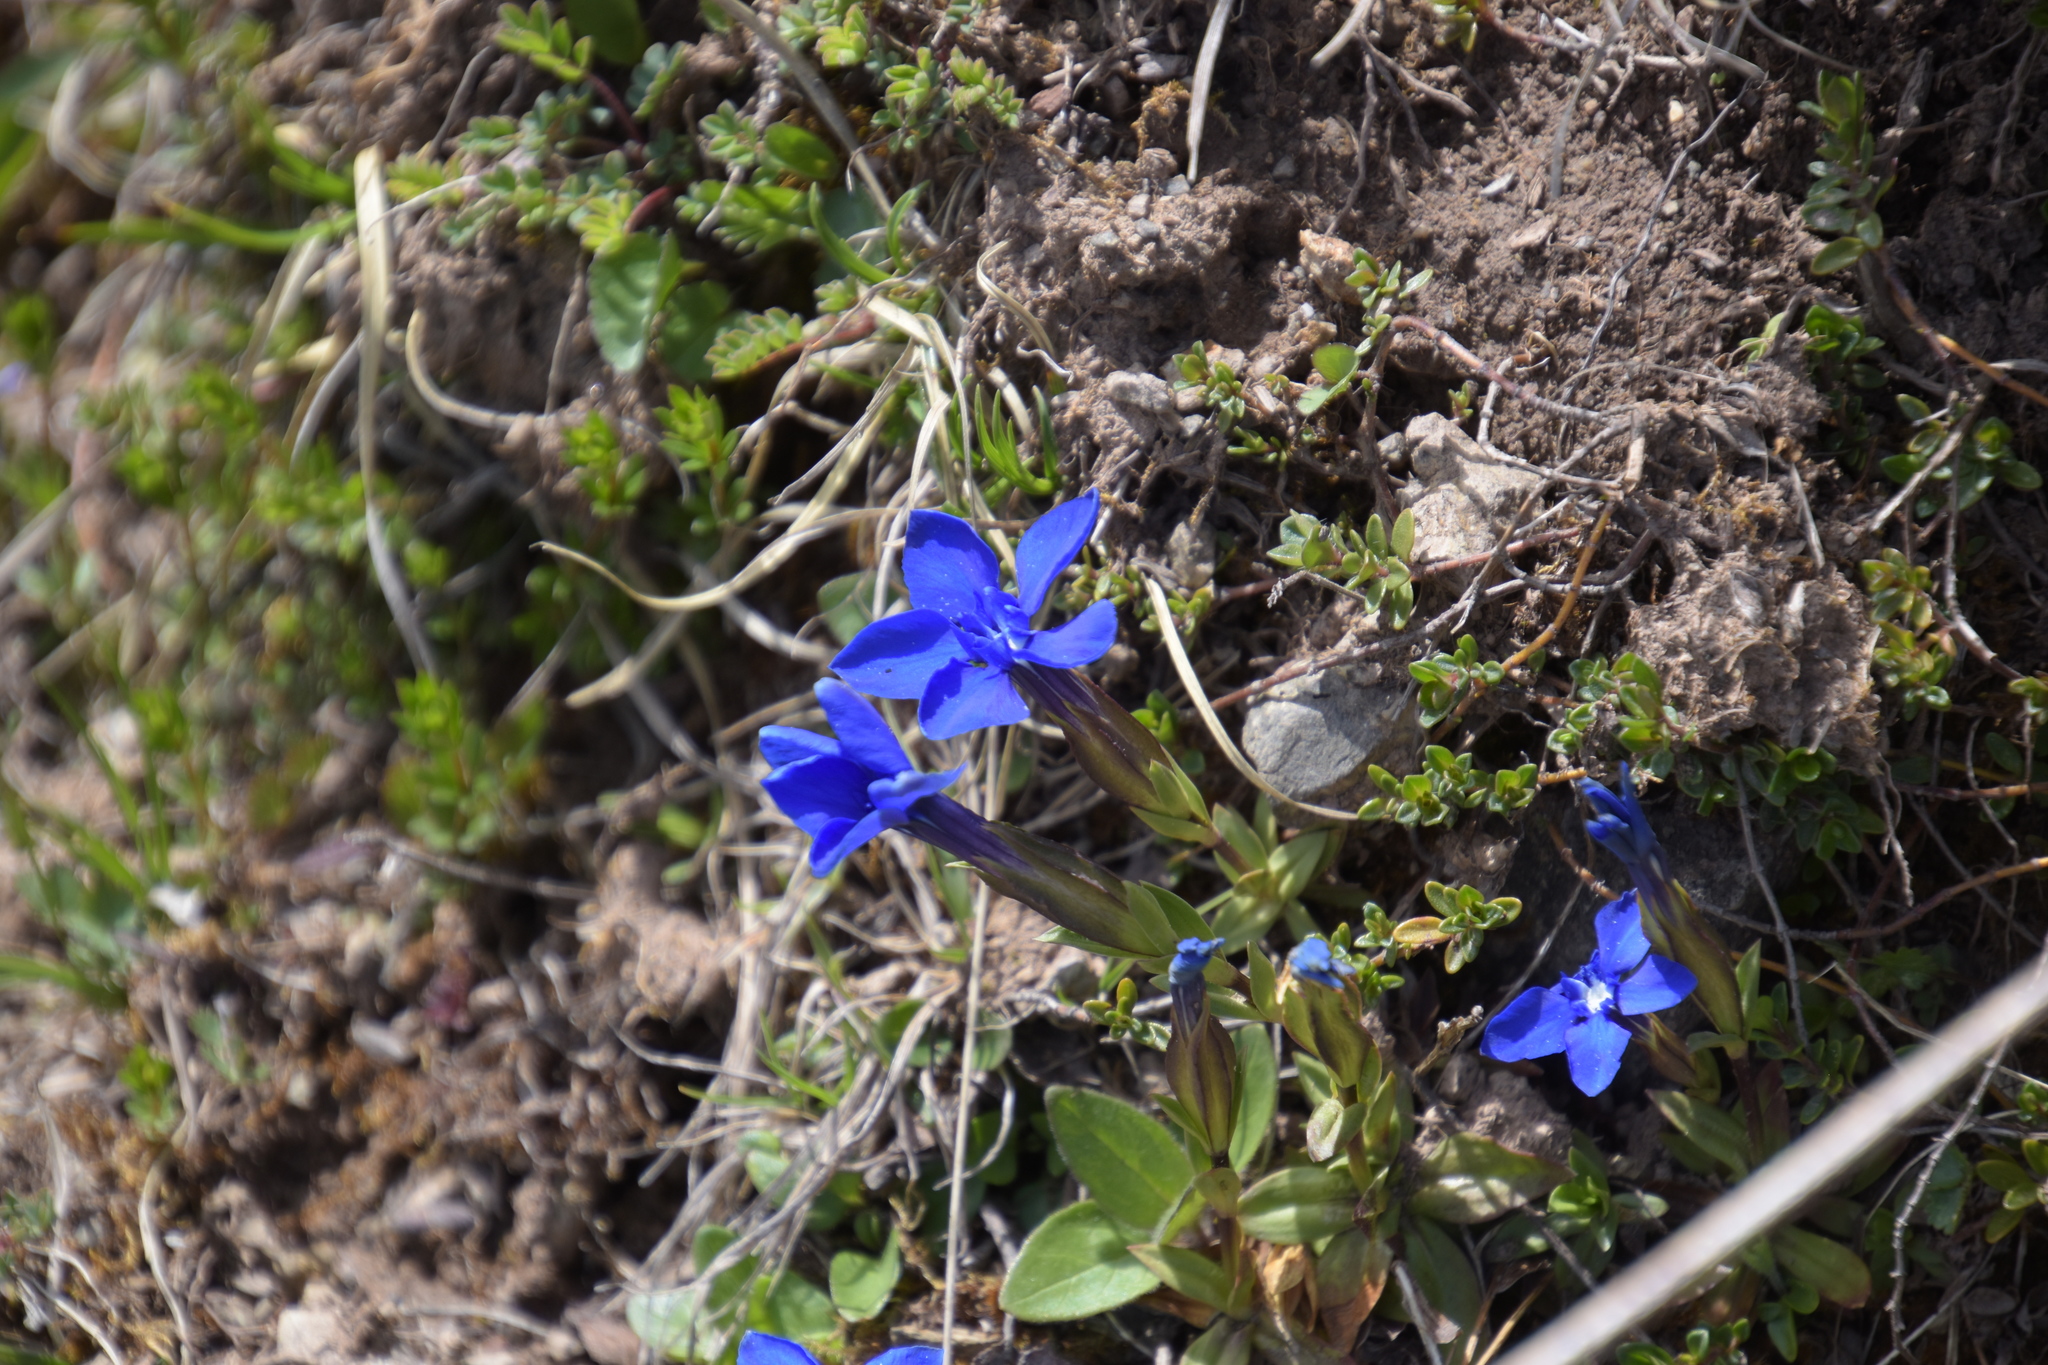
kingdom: Plantae
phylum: Tracheophyta
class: Magnoliopsida
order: Gentianales
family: Gentianaceae
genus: Gentiana
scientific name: Gentiana verna
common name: Spring gentian
